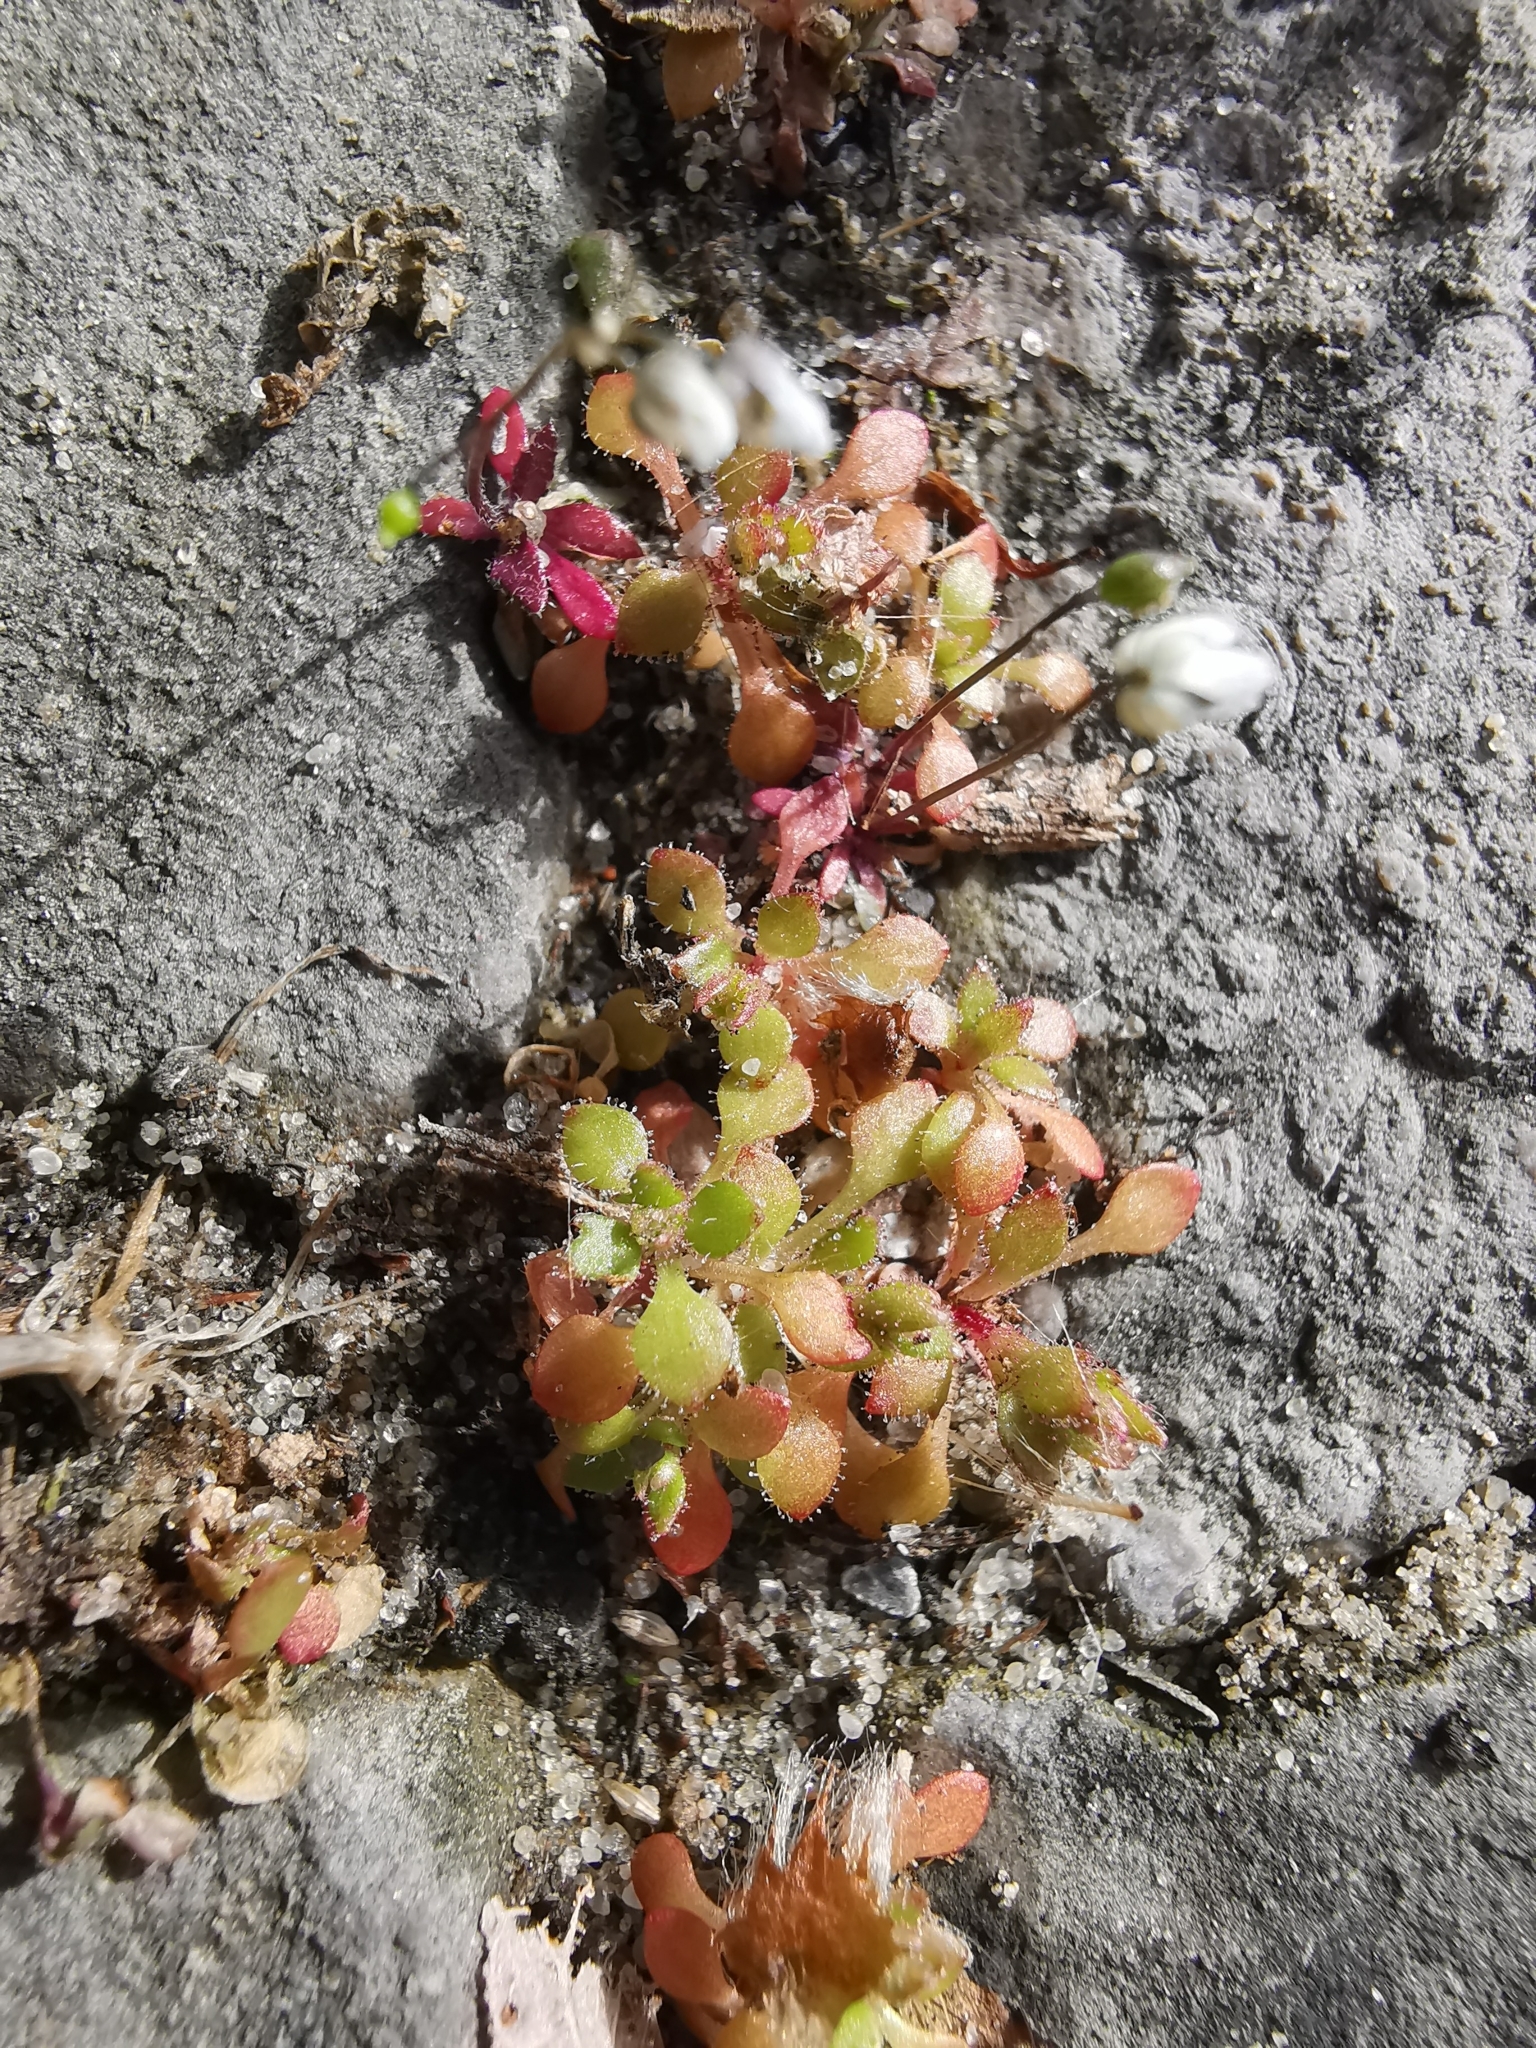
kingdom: Plantae
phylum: Tracheophyta
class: Magnoliopsida
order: Saxifragales
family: Saxifragaceae
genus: Saxifraga
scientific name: Saxifraga tridactylites
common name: Rue-leaved saxifrage
